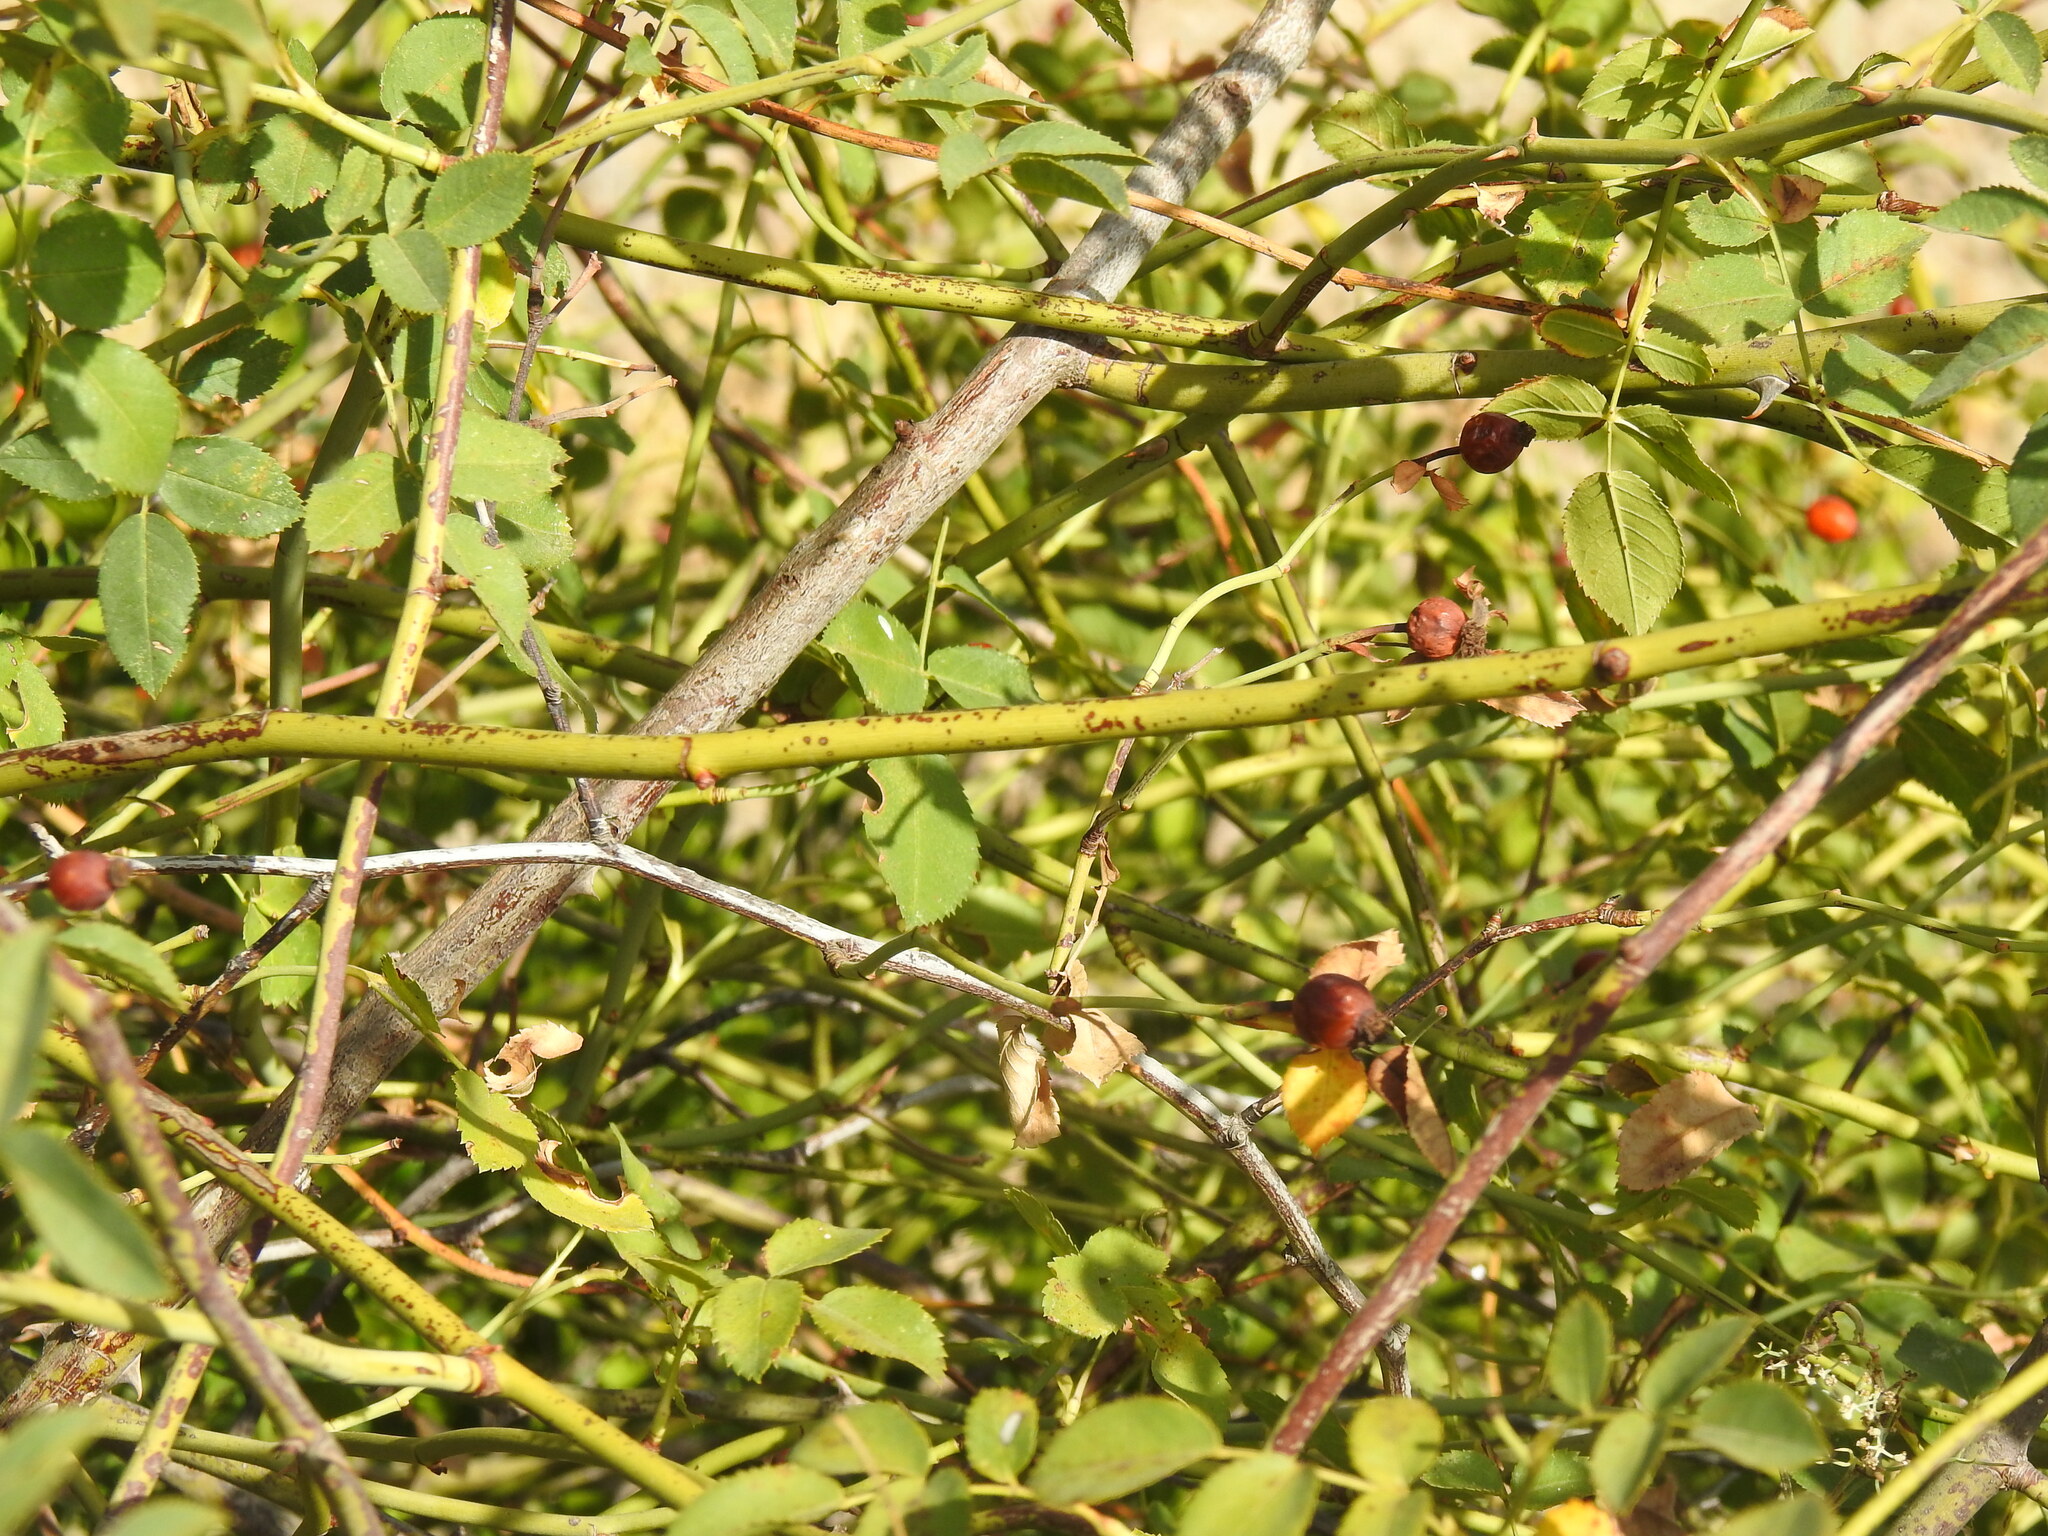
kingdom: Plantae
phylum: Tracheophyta
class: Magnoliopsida
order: Rosales
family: Rosaceae
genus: Rosa
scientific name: Rosa canina
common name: Dog rose
